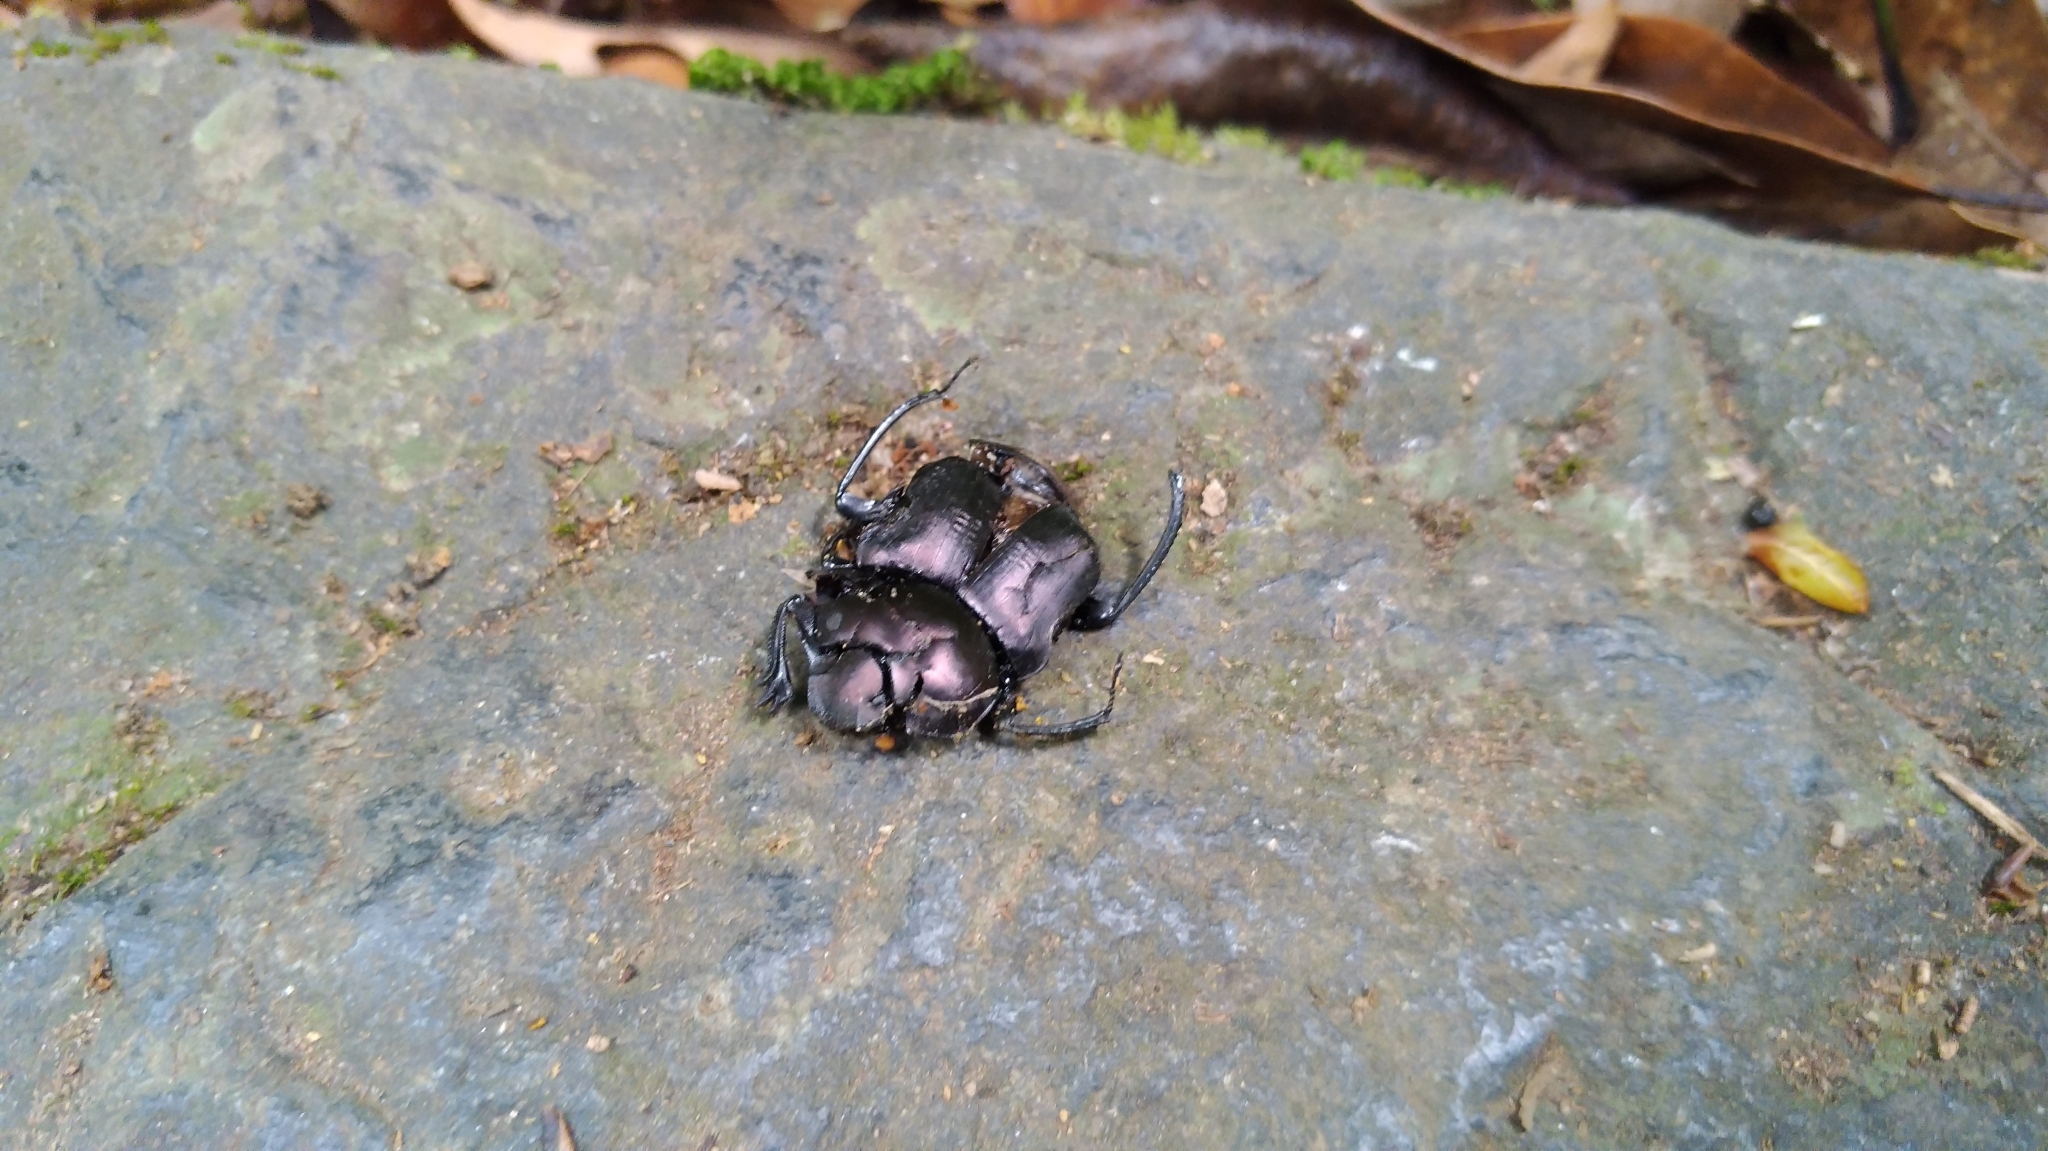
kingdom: Animalia
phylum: Arthropoda
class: Insecta
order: Coleoptera
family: Scarabaeidae
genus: Paragymnopleurus
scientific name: Paragymnopleurus ambiguus
